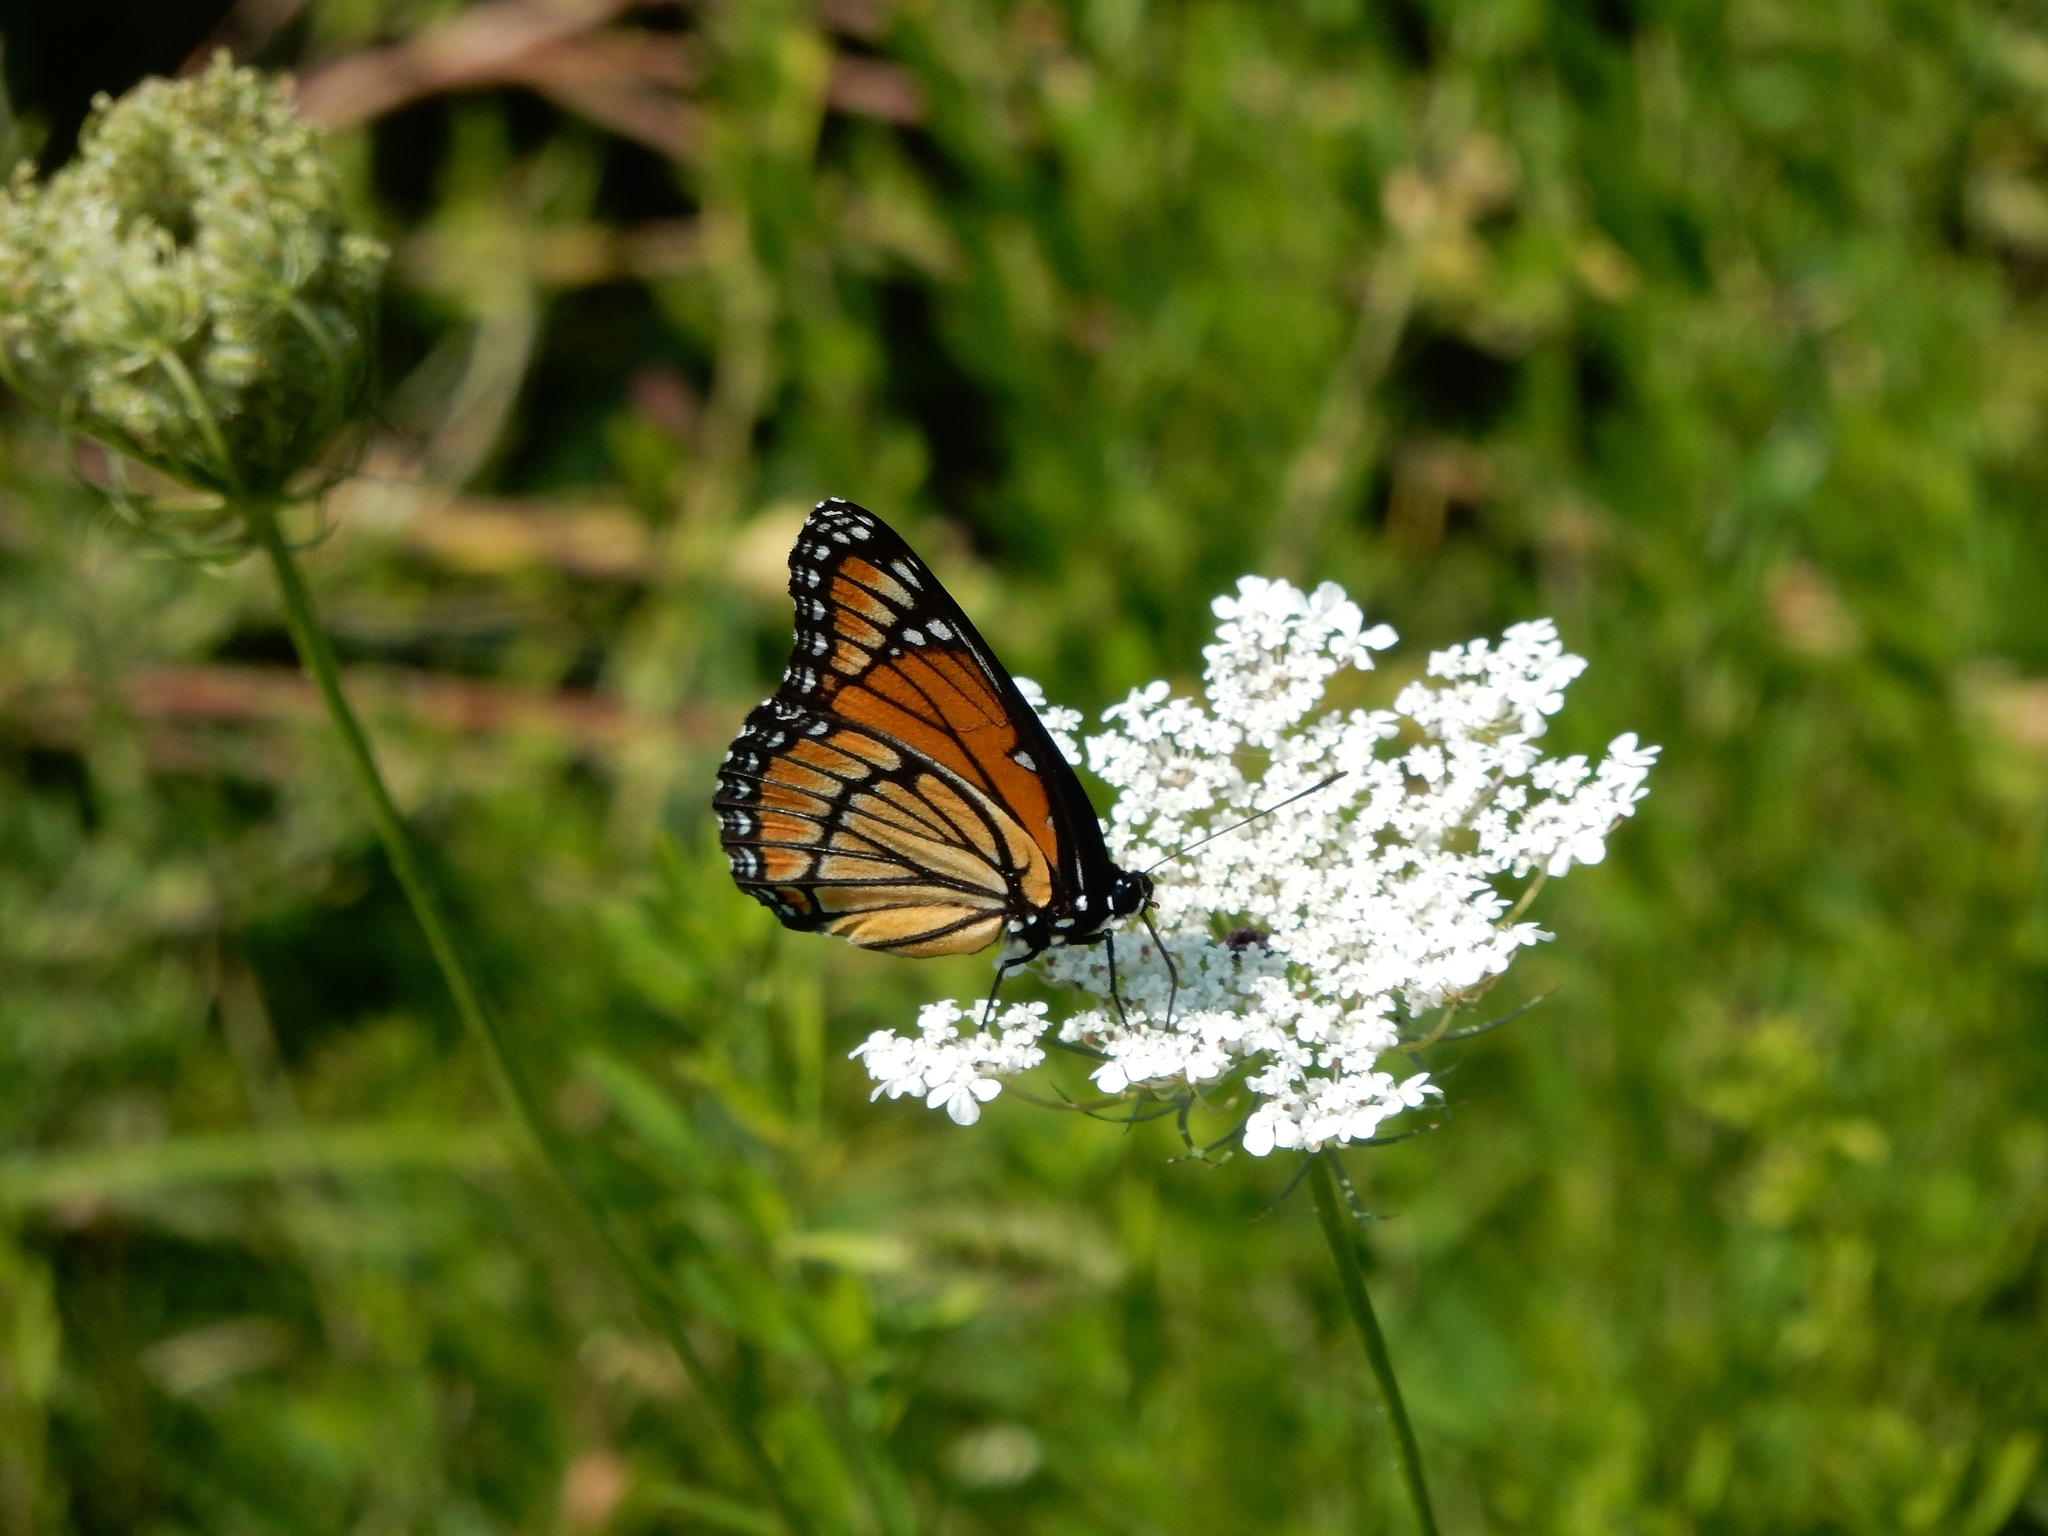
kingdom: Animalia
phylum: Arthropoda
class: Insecta
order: Lepidoptera
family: Nymphalidae
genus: Limenitis
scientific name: Limenitis archippus
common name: Viceroy
